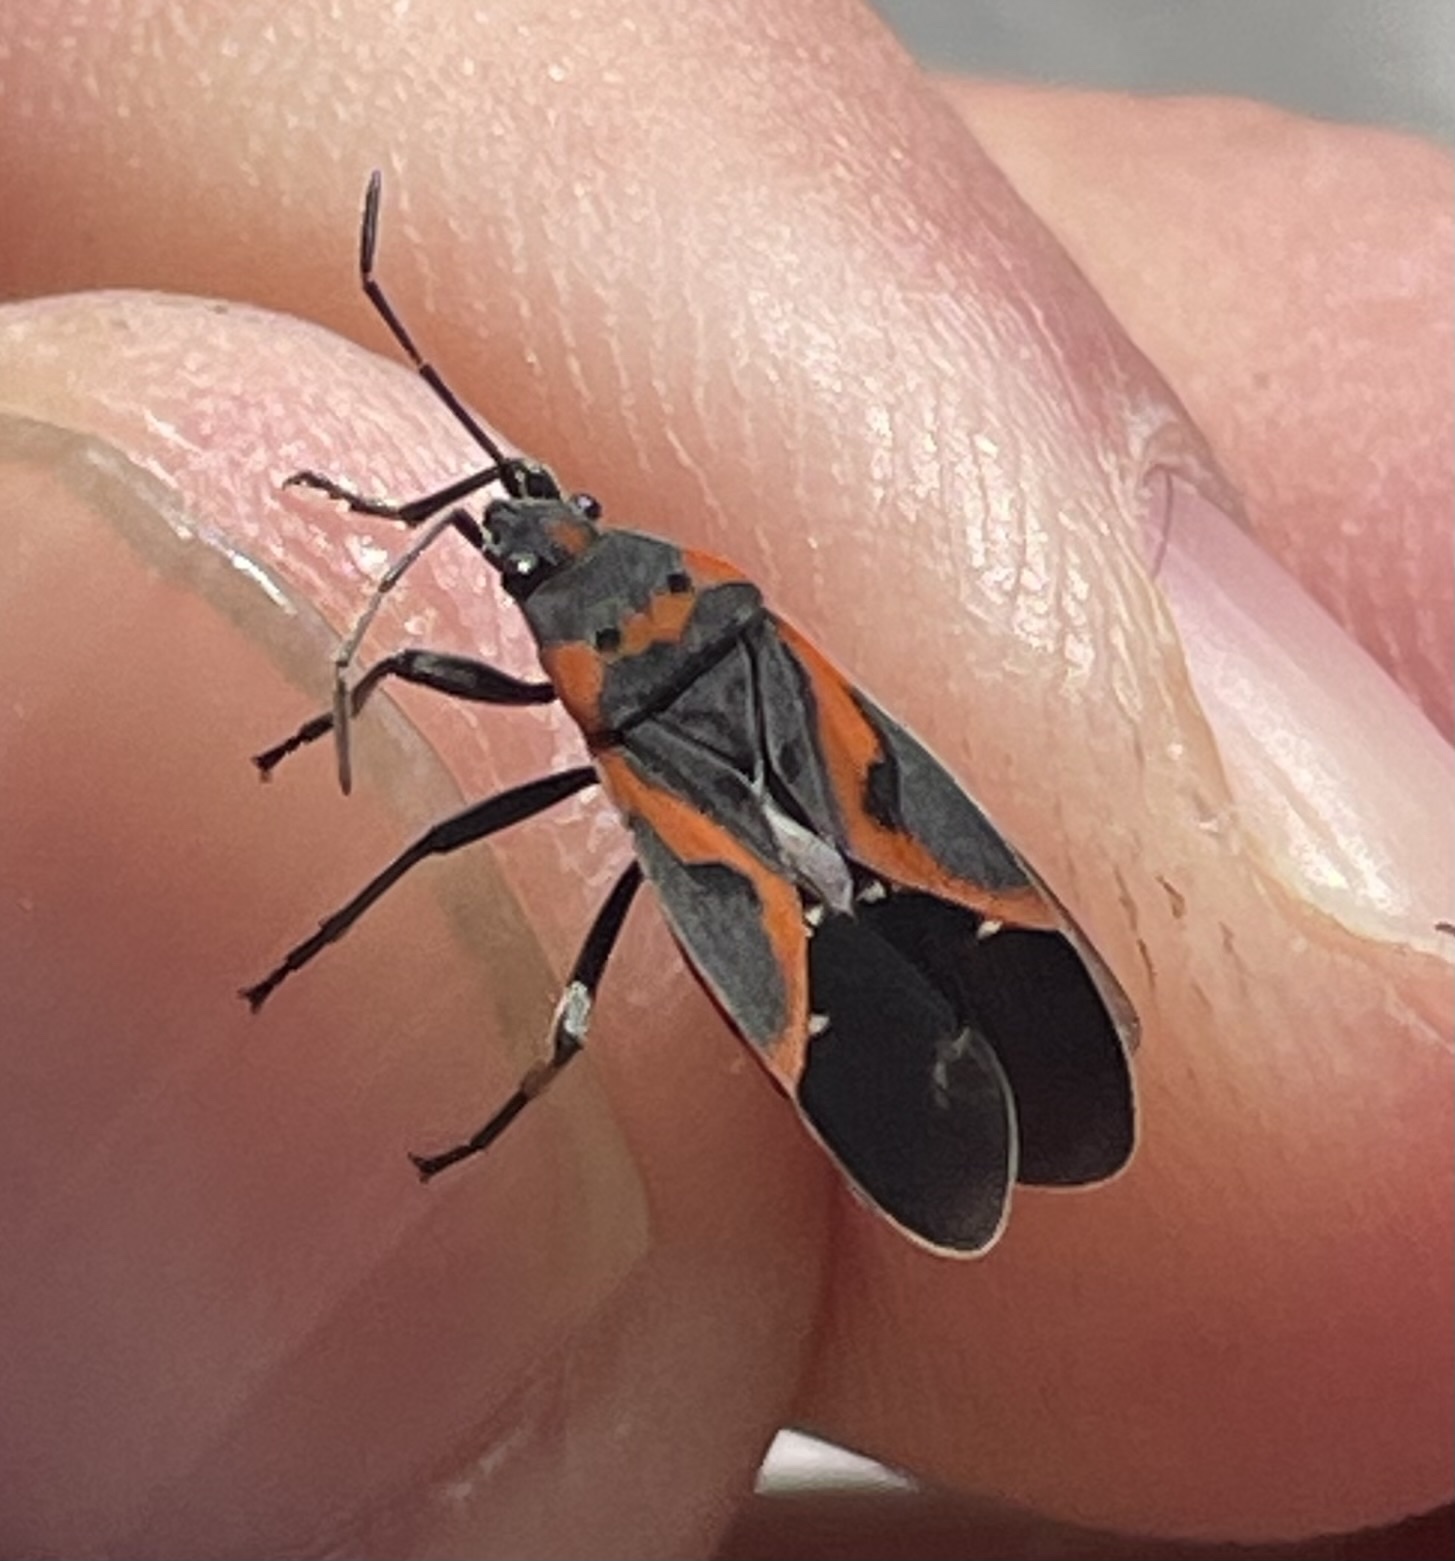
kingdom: Animalia
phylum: Arthropoda
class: Insecta
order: Hemiptera
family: Lygaeidae
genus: Lygaeus
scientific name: Lygaeus kalmii
